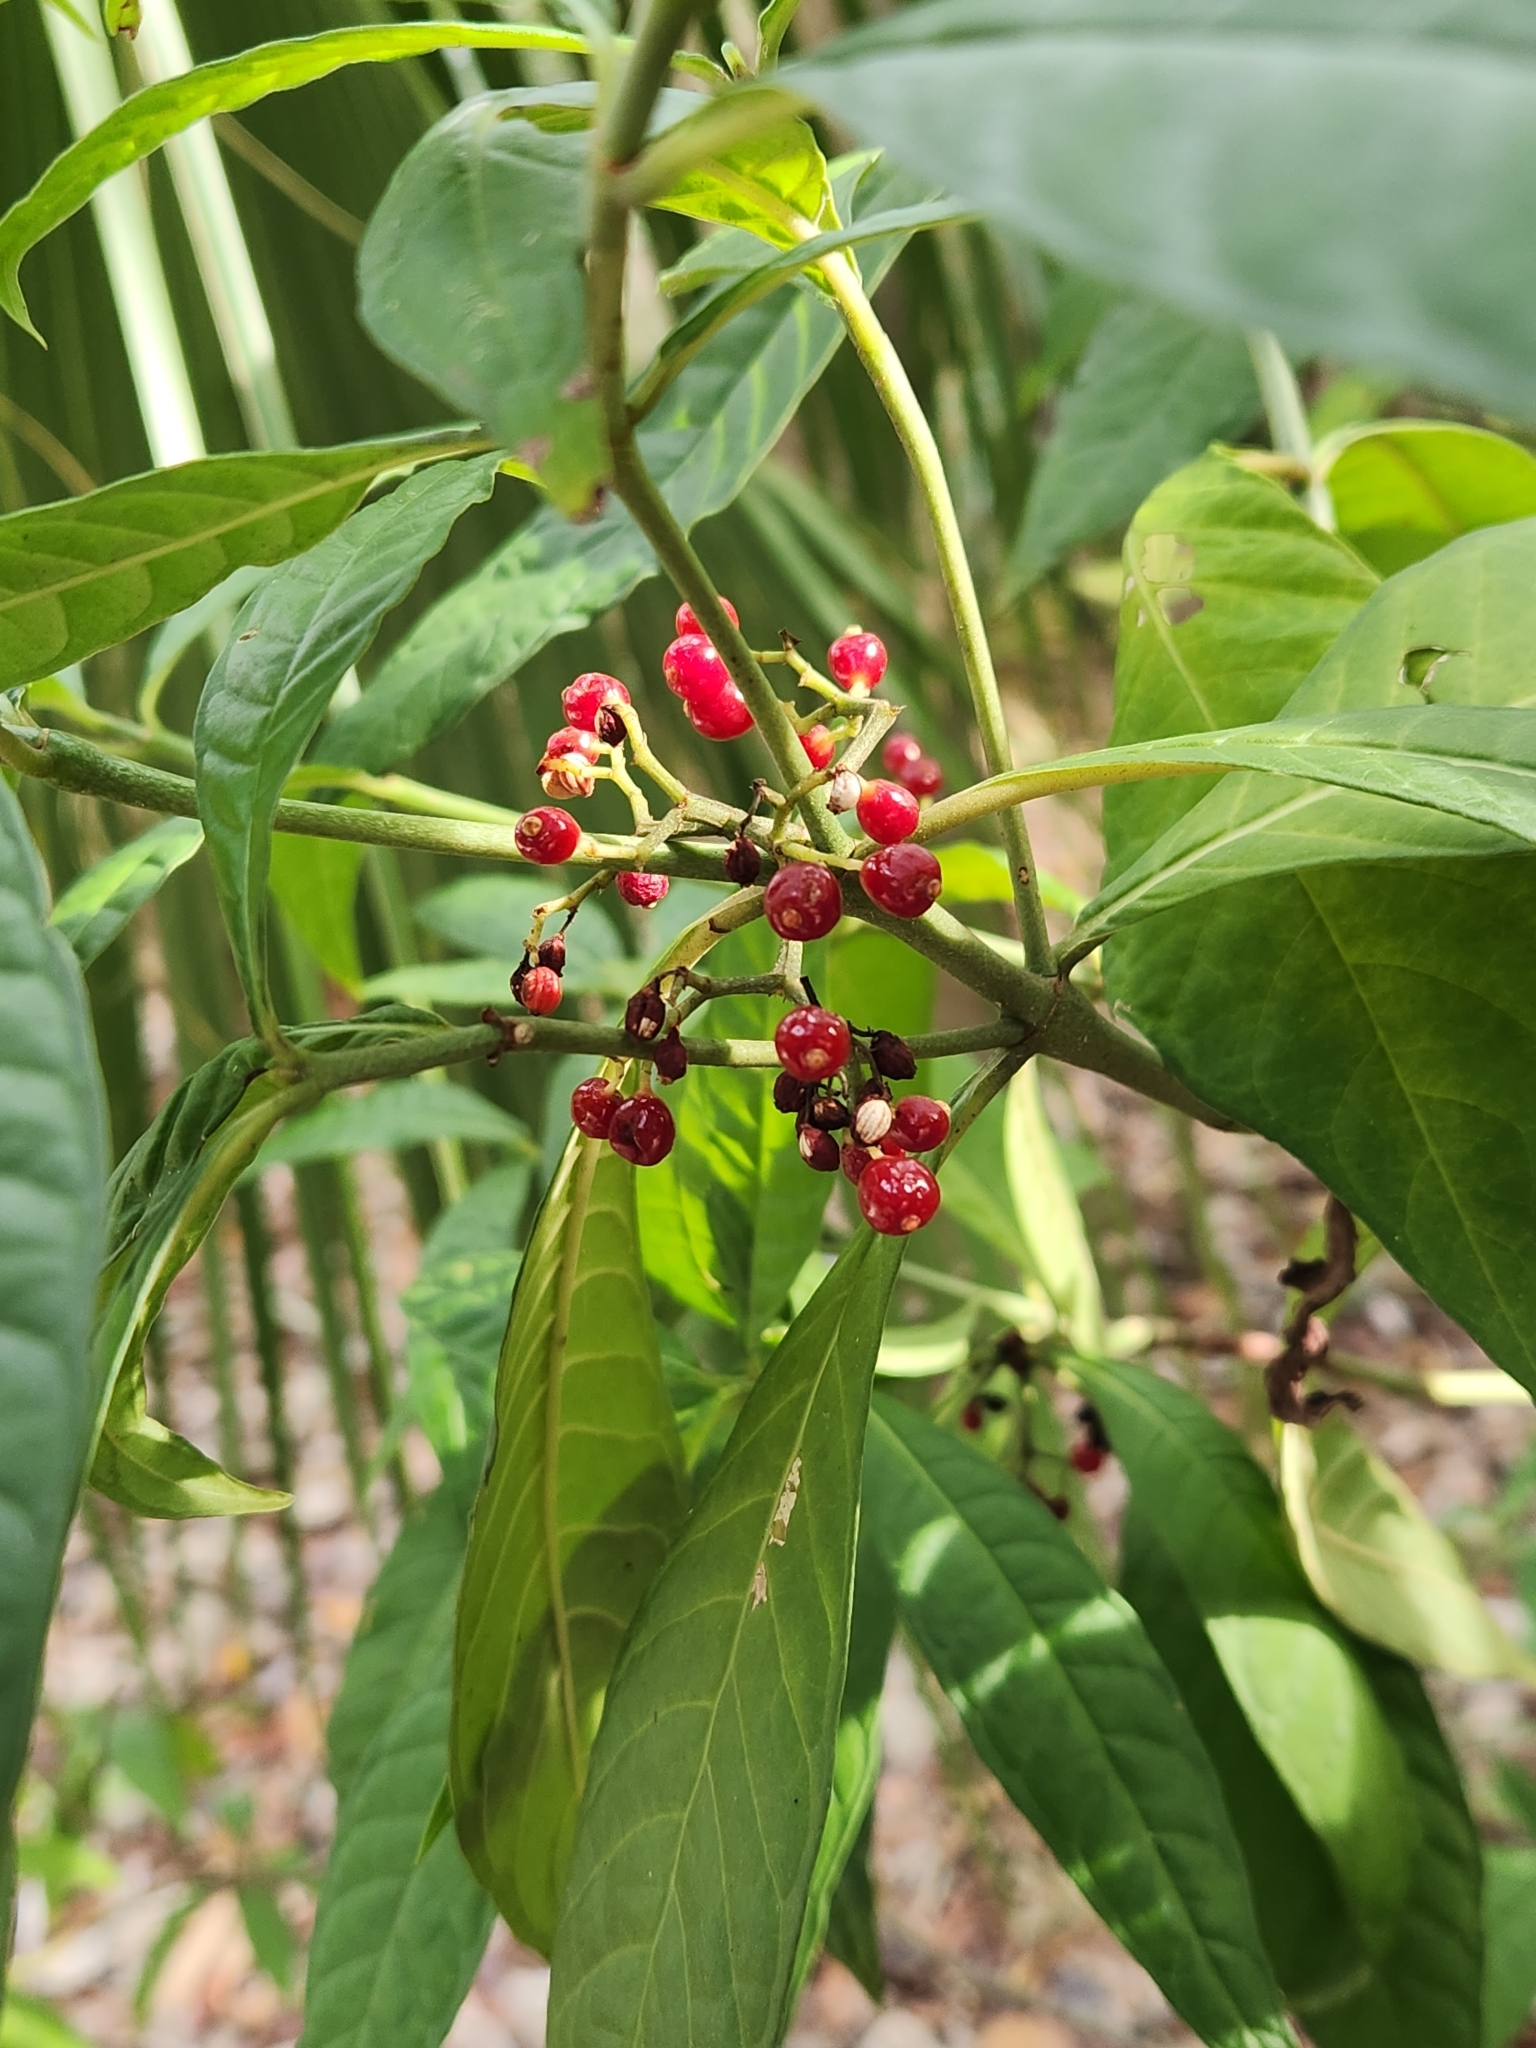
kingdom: Plantae
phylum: Tracheophyta
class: Magnoliopsida
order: Gentianales
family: Rubiaceae
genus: Psychotria
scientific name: Psychotria tenuifolia
